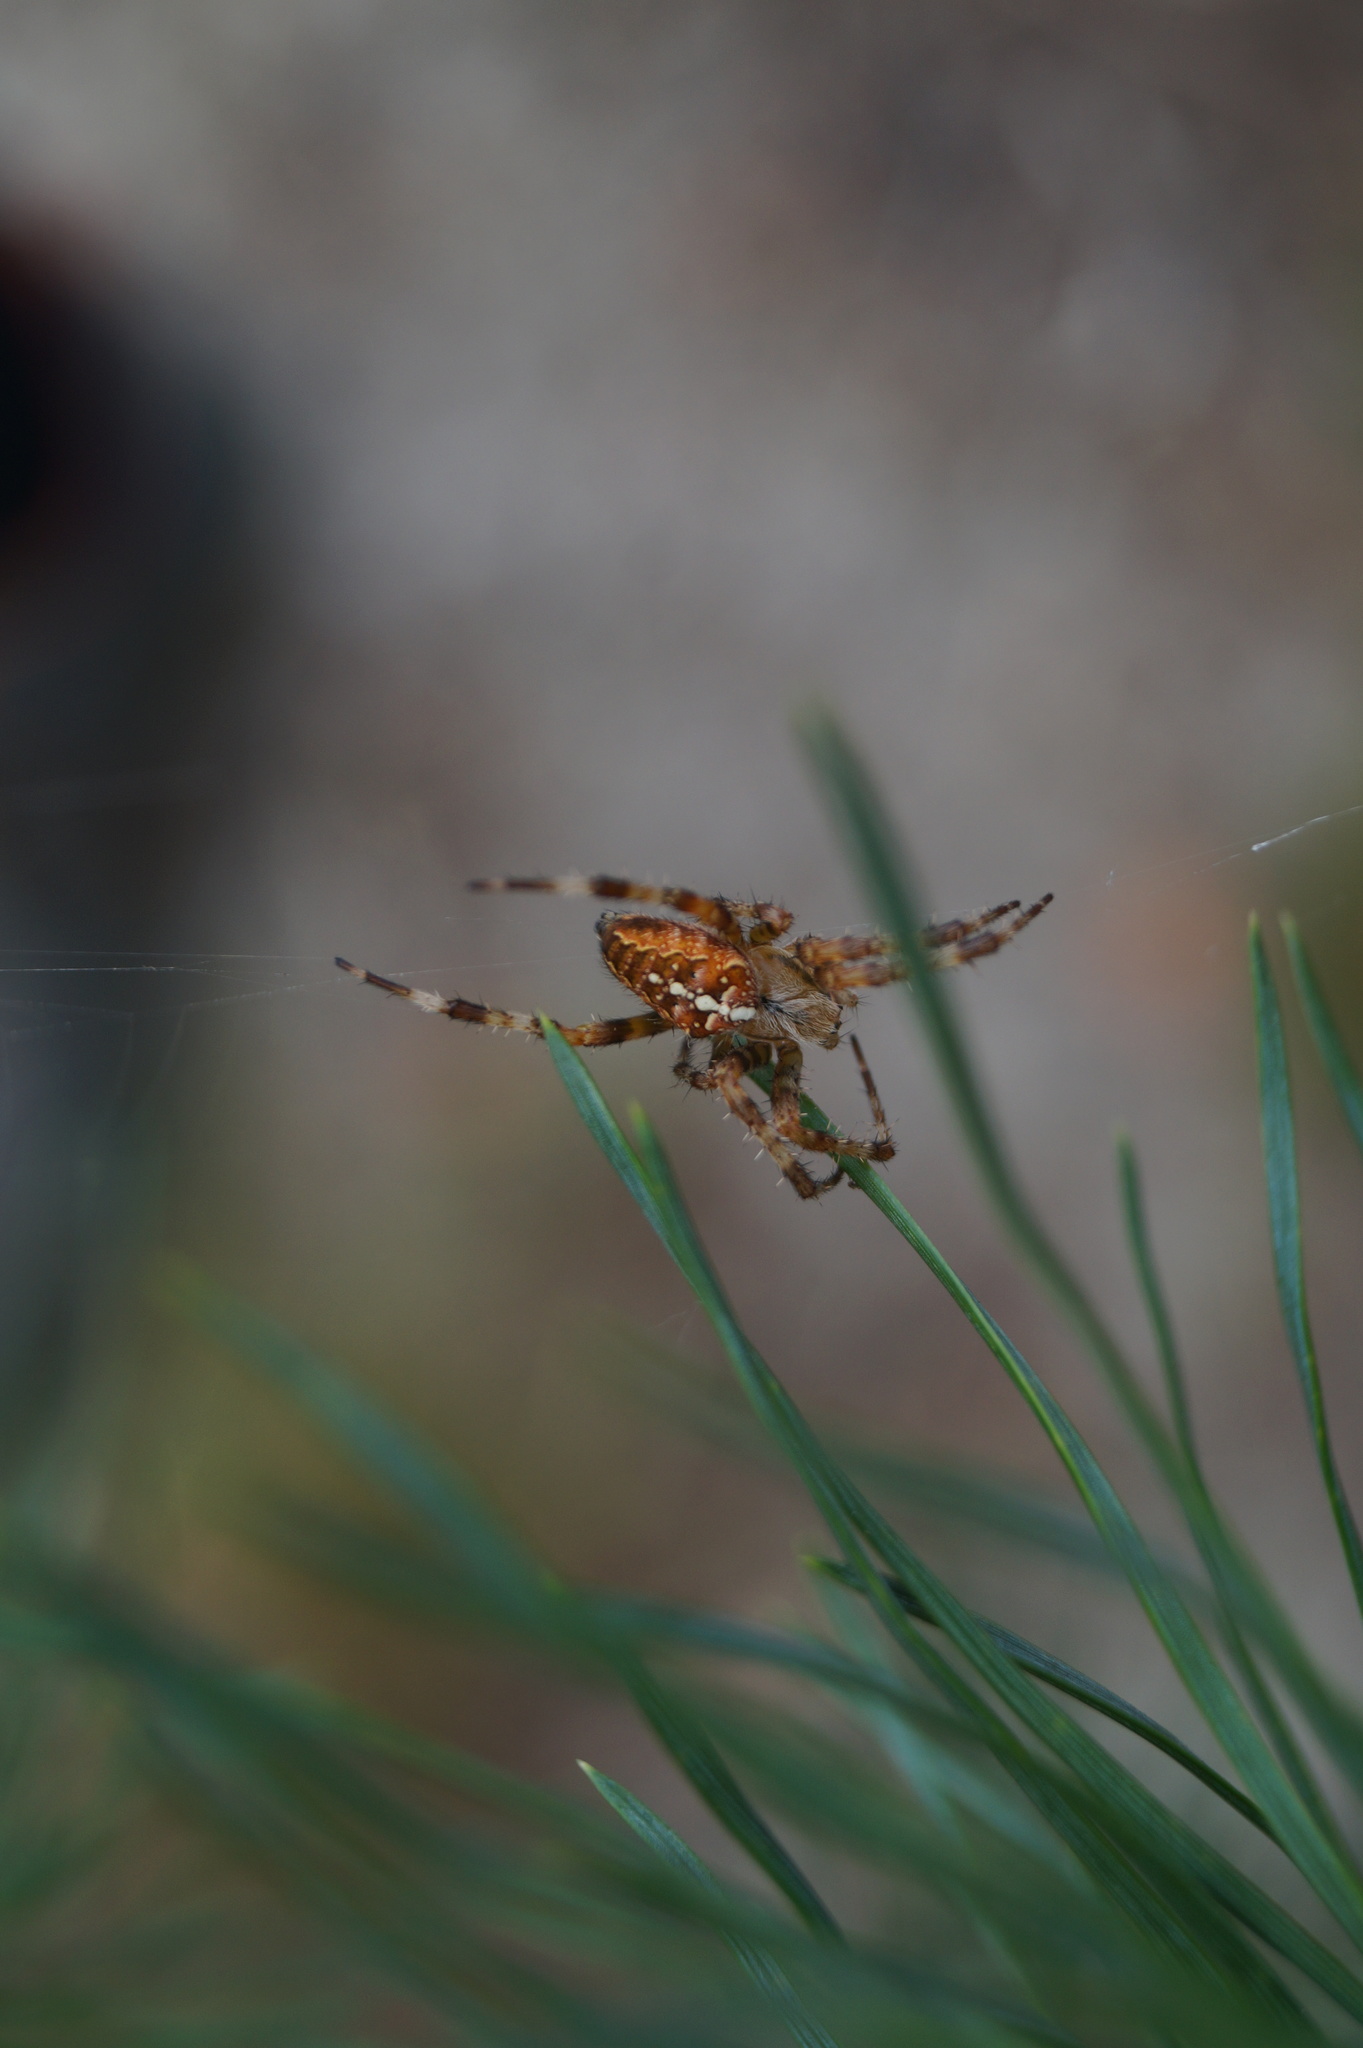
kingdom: Animalia
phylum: Arthropoda
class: Arachnida
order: Araneae
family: Araneidae
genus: Araneus
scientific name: Araneus diadematus
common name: Cross orbweaver
